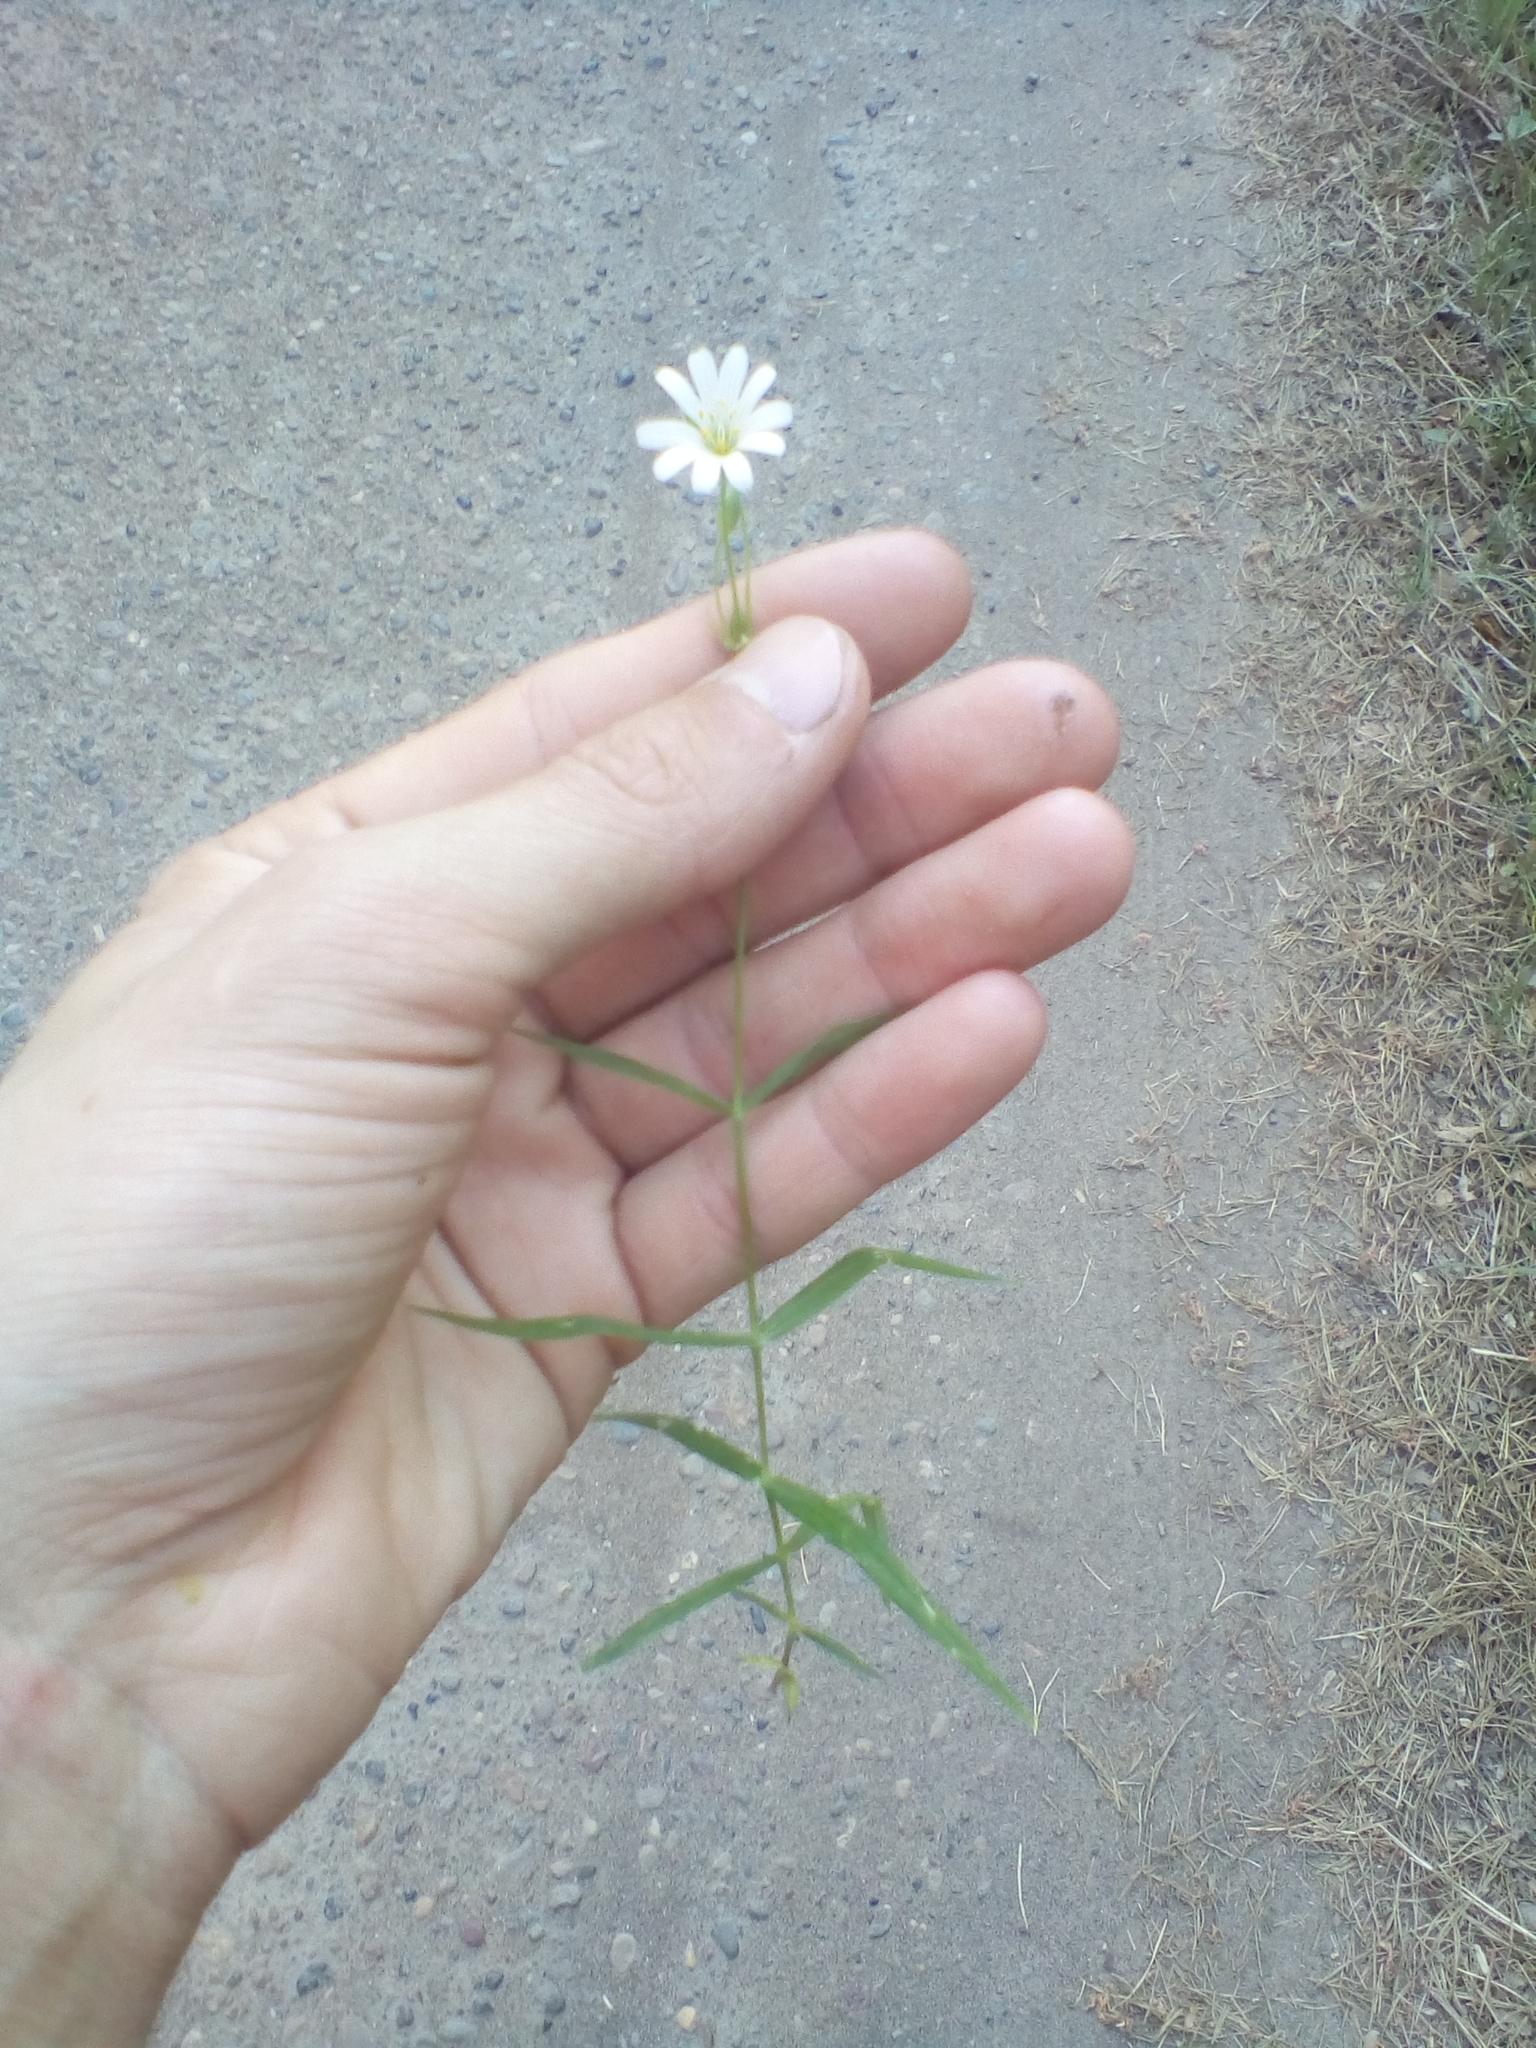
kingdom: Plantae
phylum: Tracheophyta
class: Magnoliopsida
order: Caryophyllales
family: Caryophyllaceae
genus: Rabelera
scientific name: Rabelera holostea
